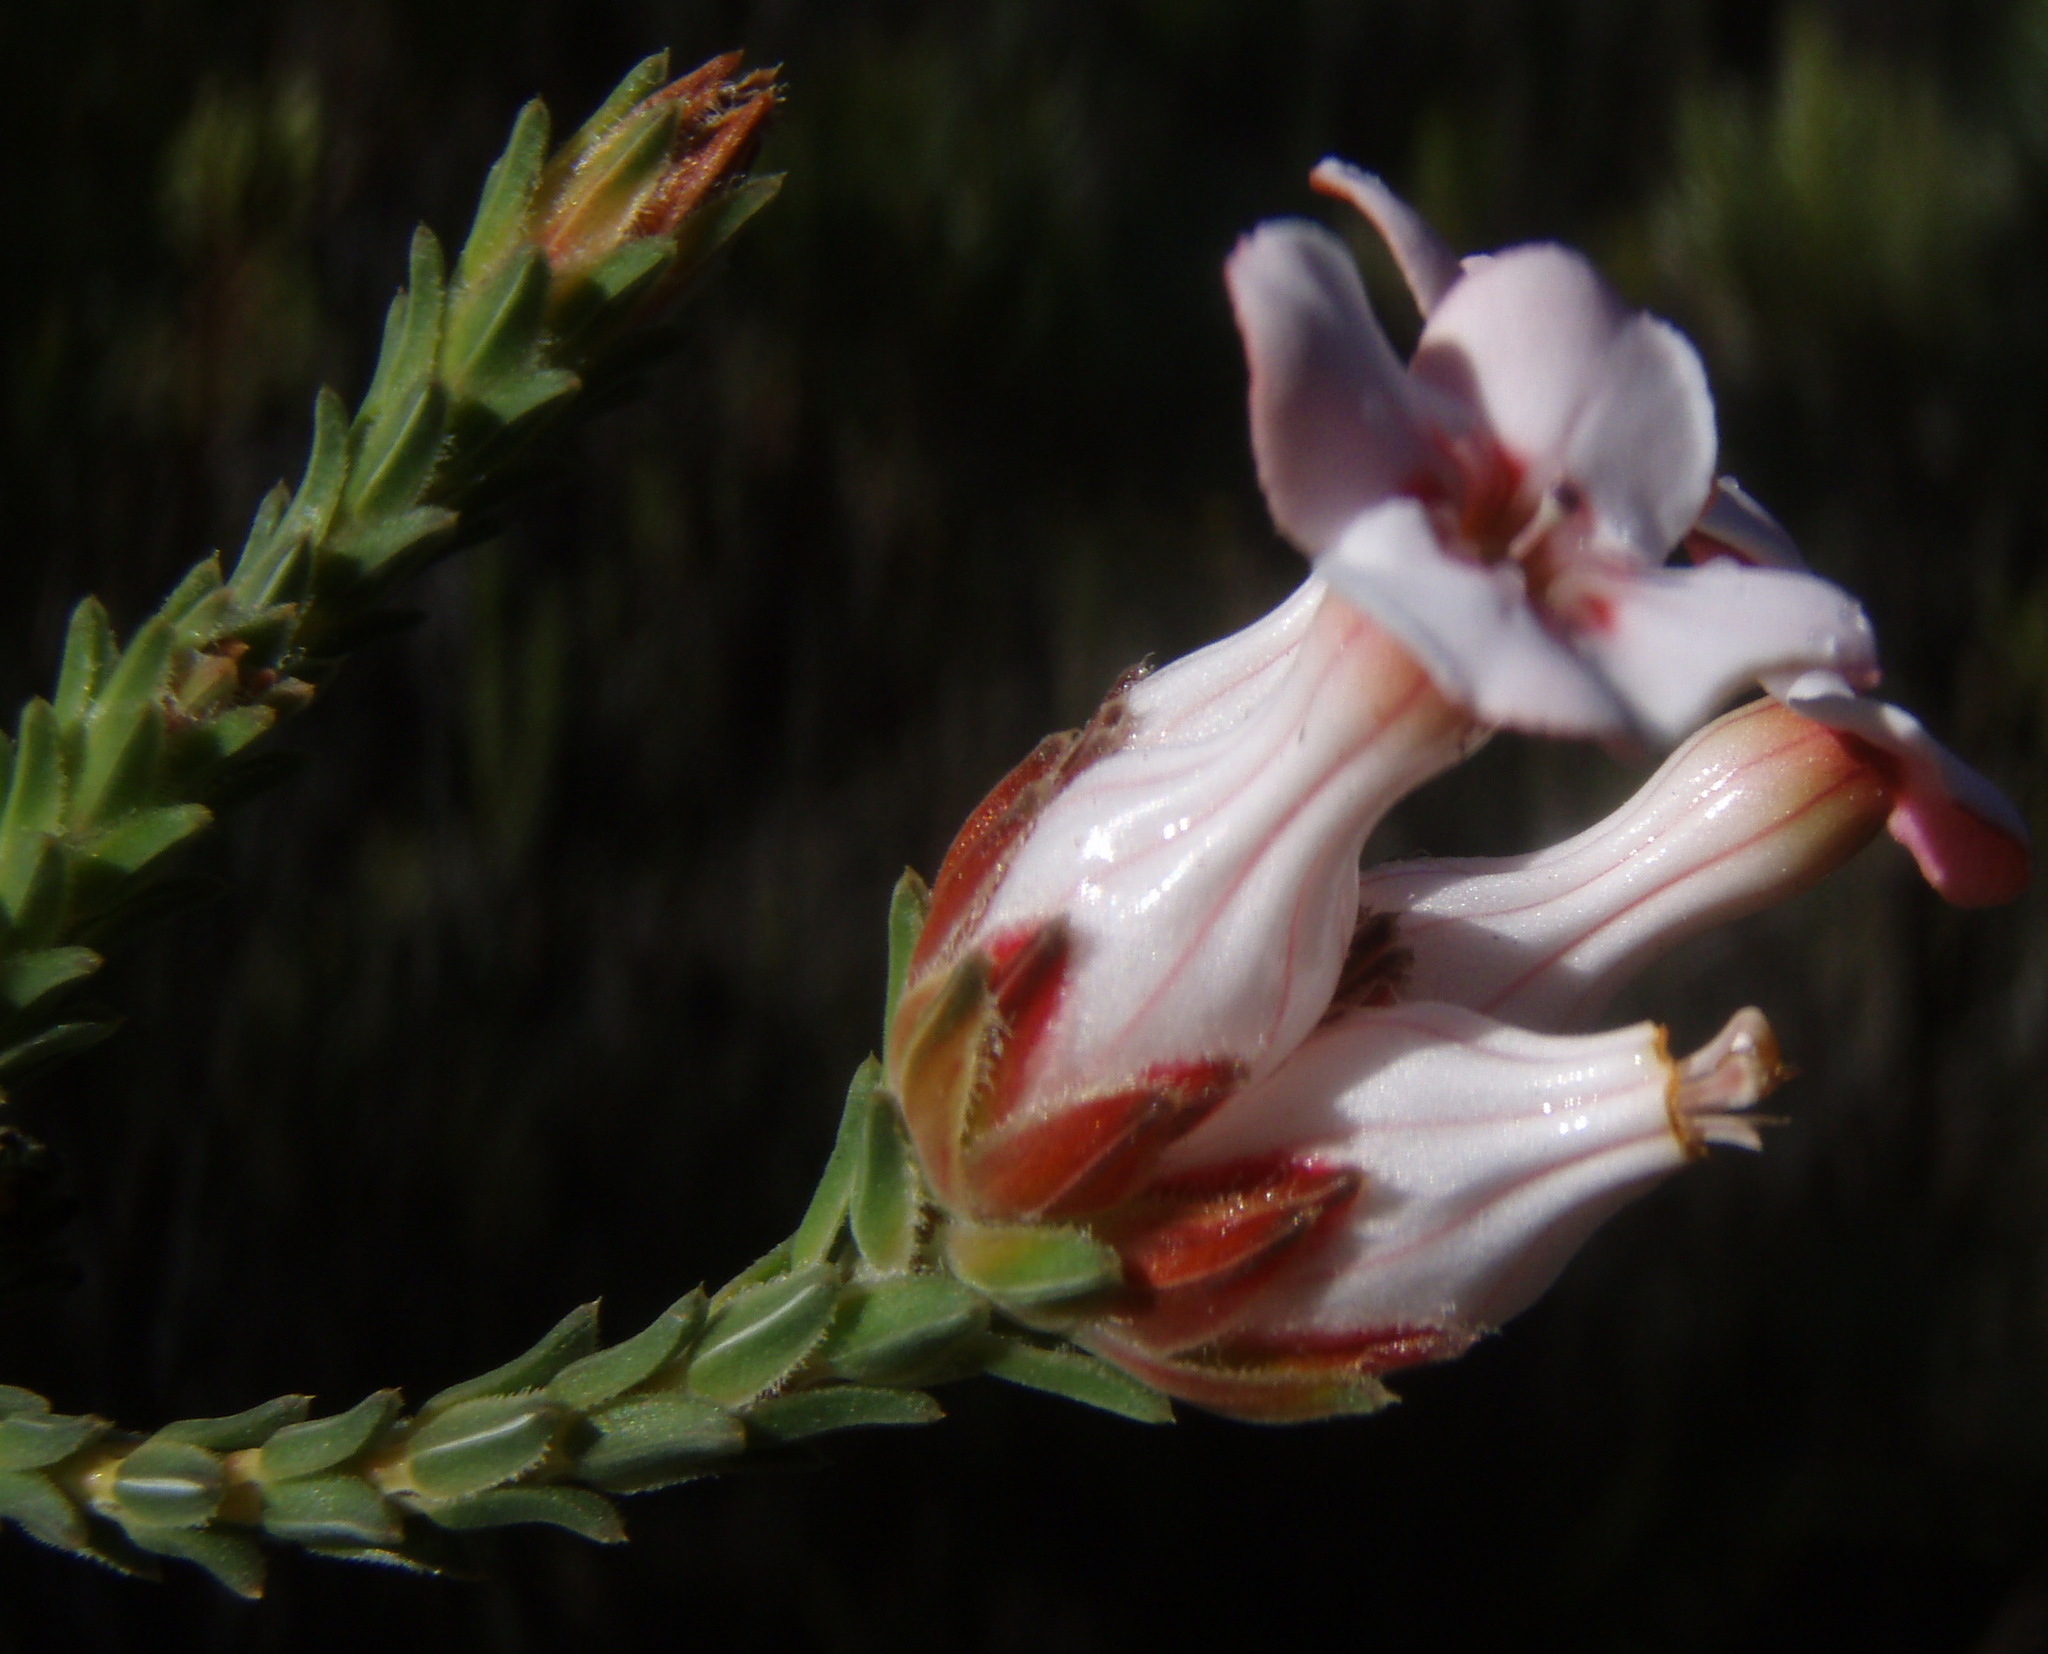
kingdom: Plantae
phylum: Tracheophyta
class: Magnoliopsida
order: Ericales
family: Ericaceae
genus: Erica
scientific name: Erica ampullacea
